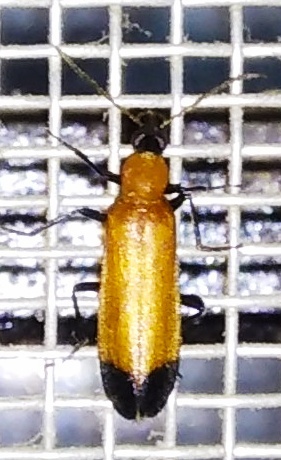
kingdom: Animalia
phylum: Arthropoda
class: Insecta
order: Coleoptera
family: Prionoceridae
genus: Idgia
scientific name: Idgia
